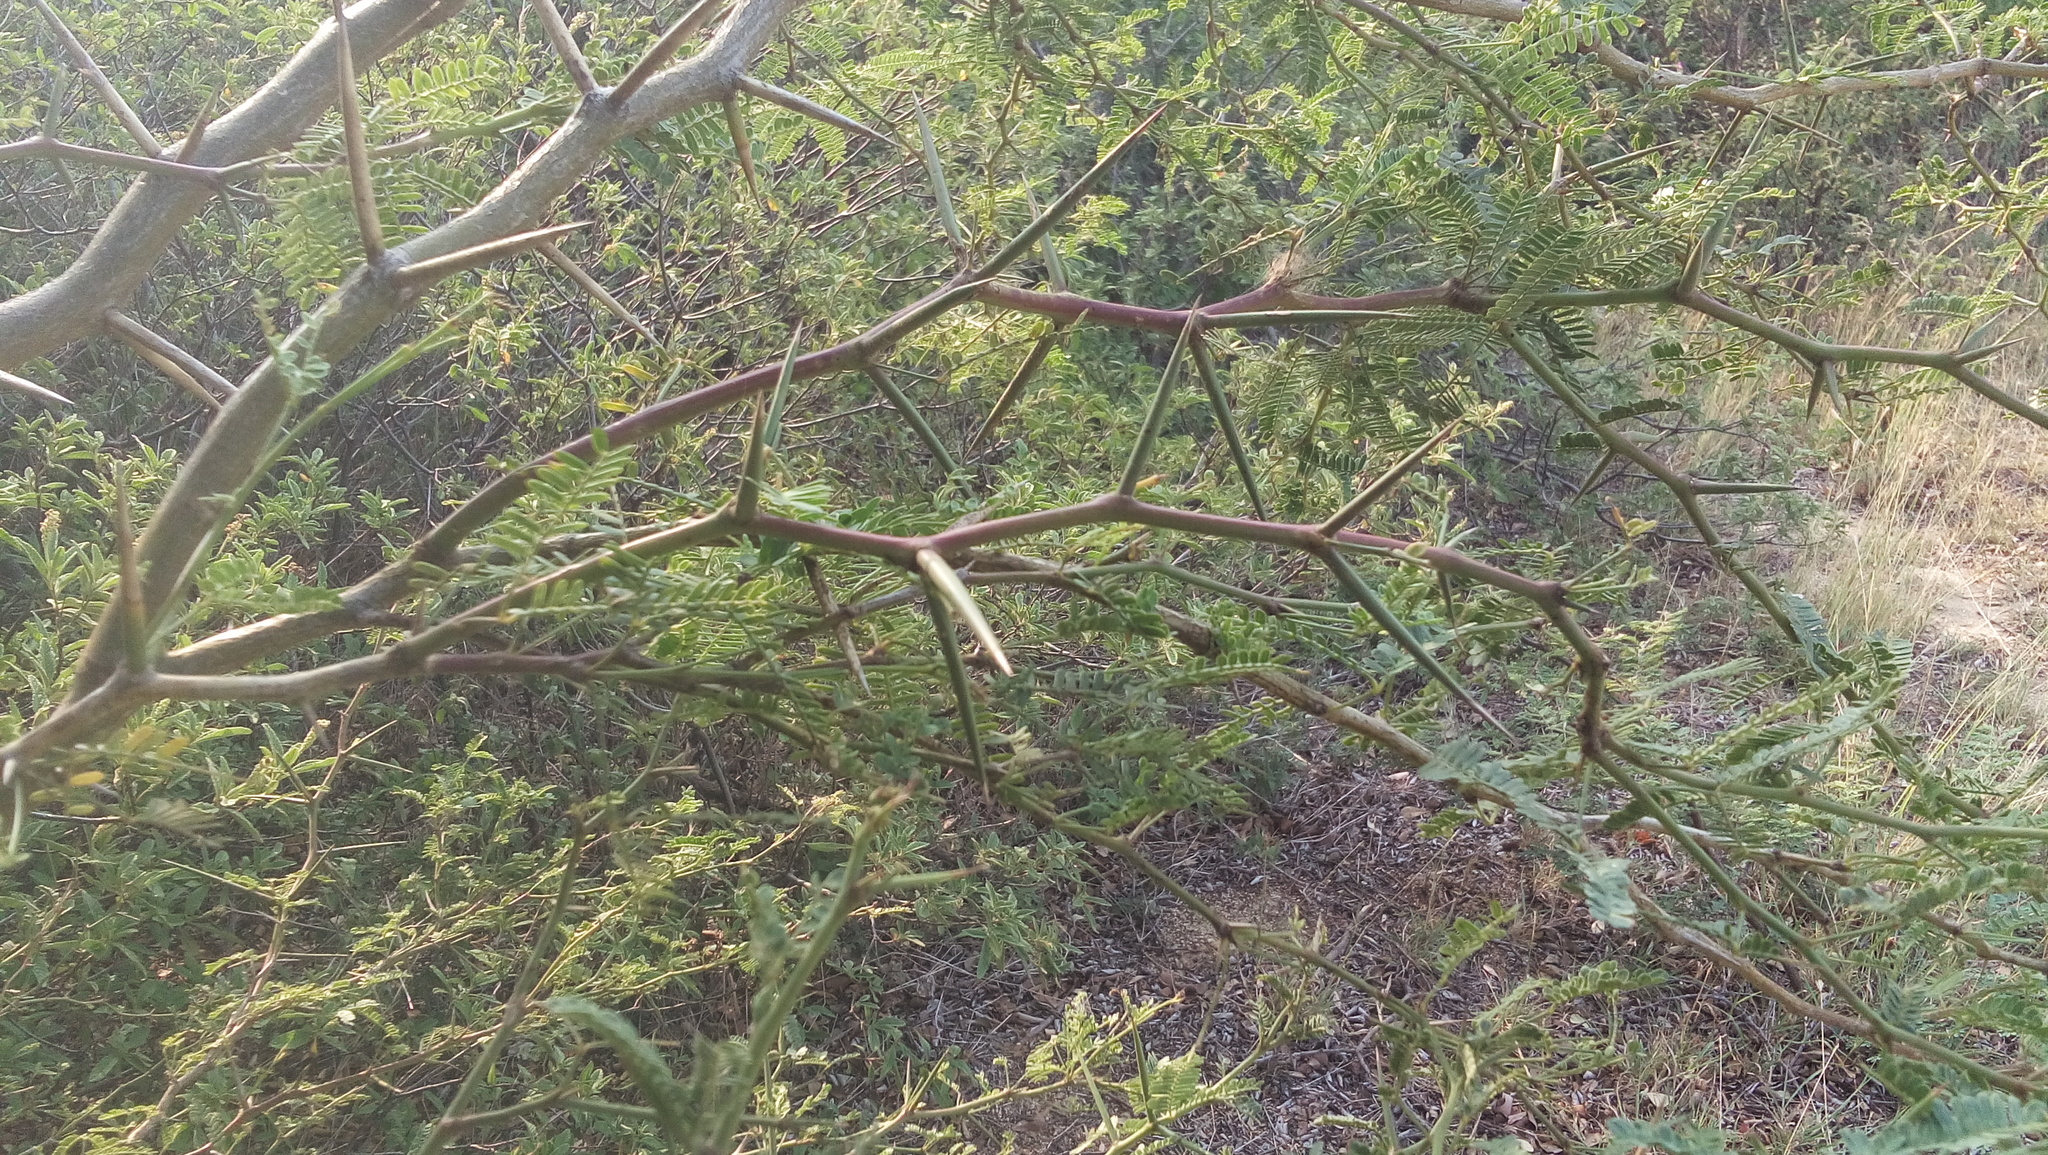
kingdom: Plantae
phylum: Tracheophyta
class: Magnoliopsida
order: Fabales
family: Fabaceae
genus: Prosopis
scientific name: Prosopis laevigata
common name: Smooth mesquite
